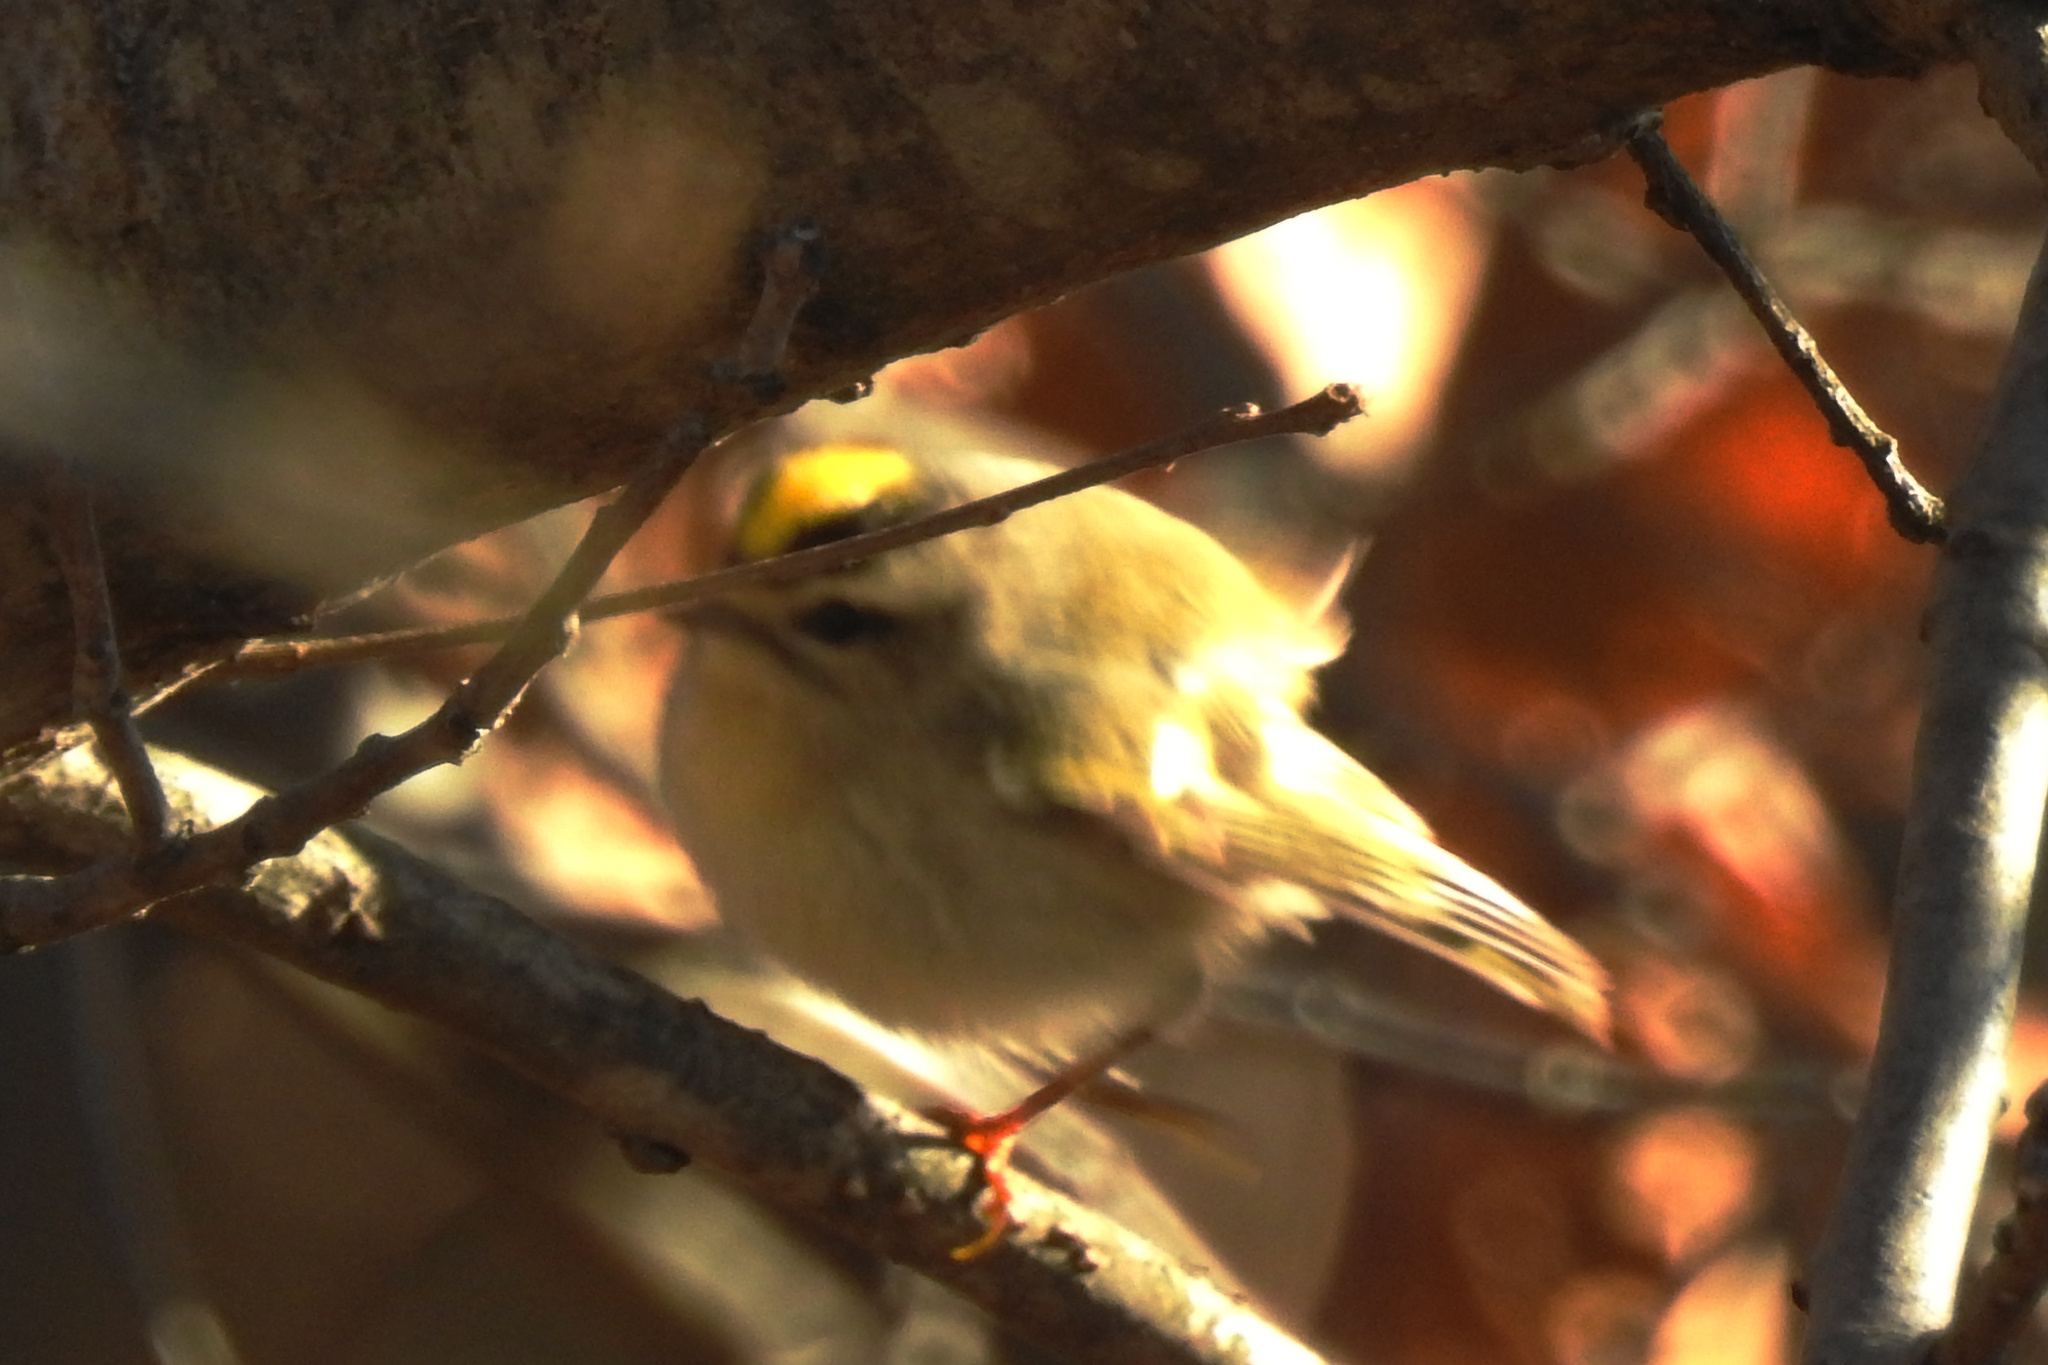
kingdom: Animalia
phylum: Chordata
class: Aves
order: Passeriformes
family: Regulidae
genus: Regulus
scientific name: Regulus satrapa
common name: Golden-crowned kinglet
